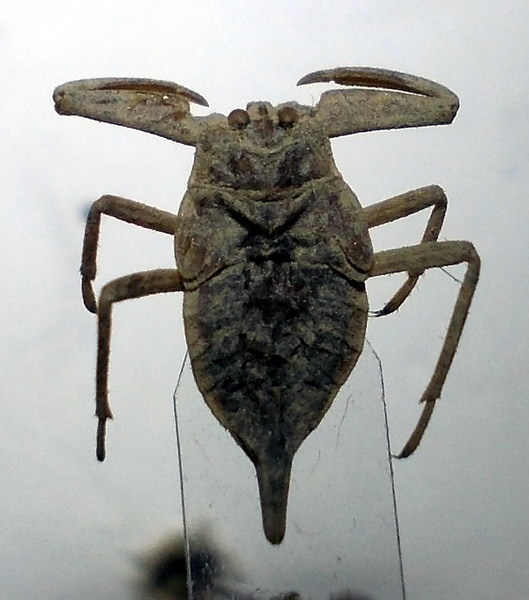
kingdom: Animalia
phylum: Arthropoda
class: Insecta
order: Hemiptera
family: Nepidae
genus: Nepa
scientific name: Nepa cinerea
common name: Water scorpion
